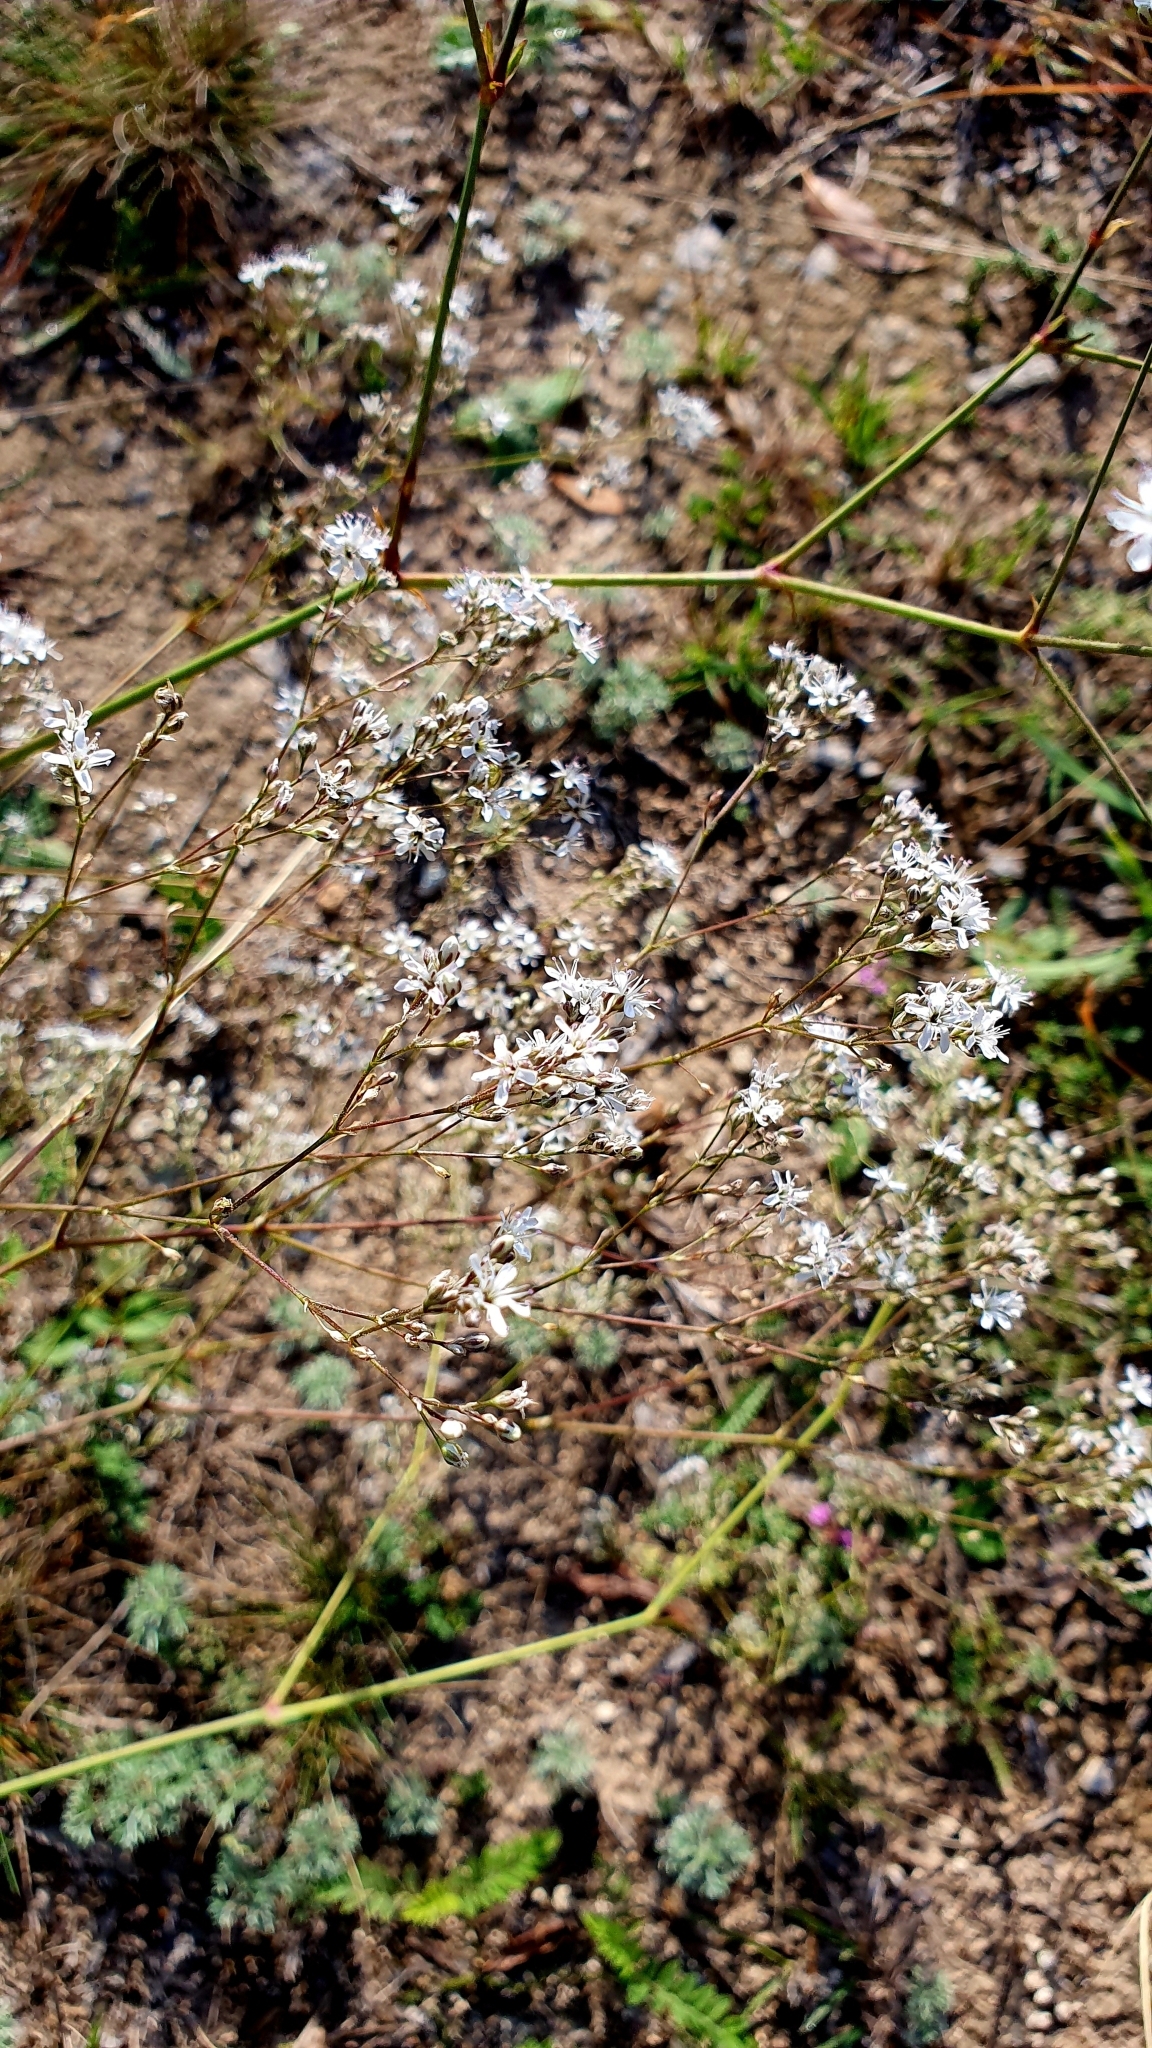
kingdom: Plantae
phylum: Tracheophyta
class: Magnoliopsida
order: Caryophyllales
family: Caryophyllaceae
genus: Gypsophila
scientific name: Gypsophila altissima
